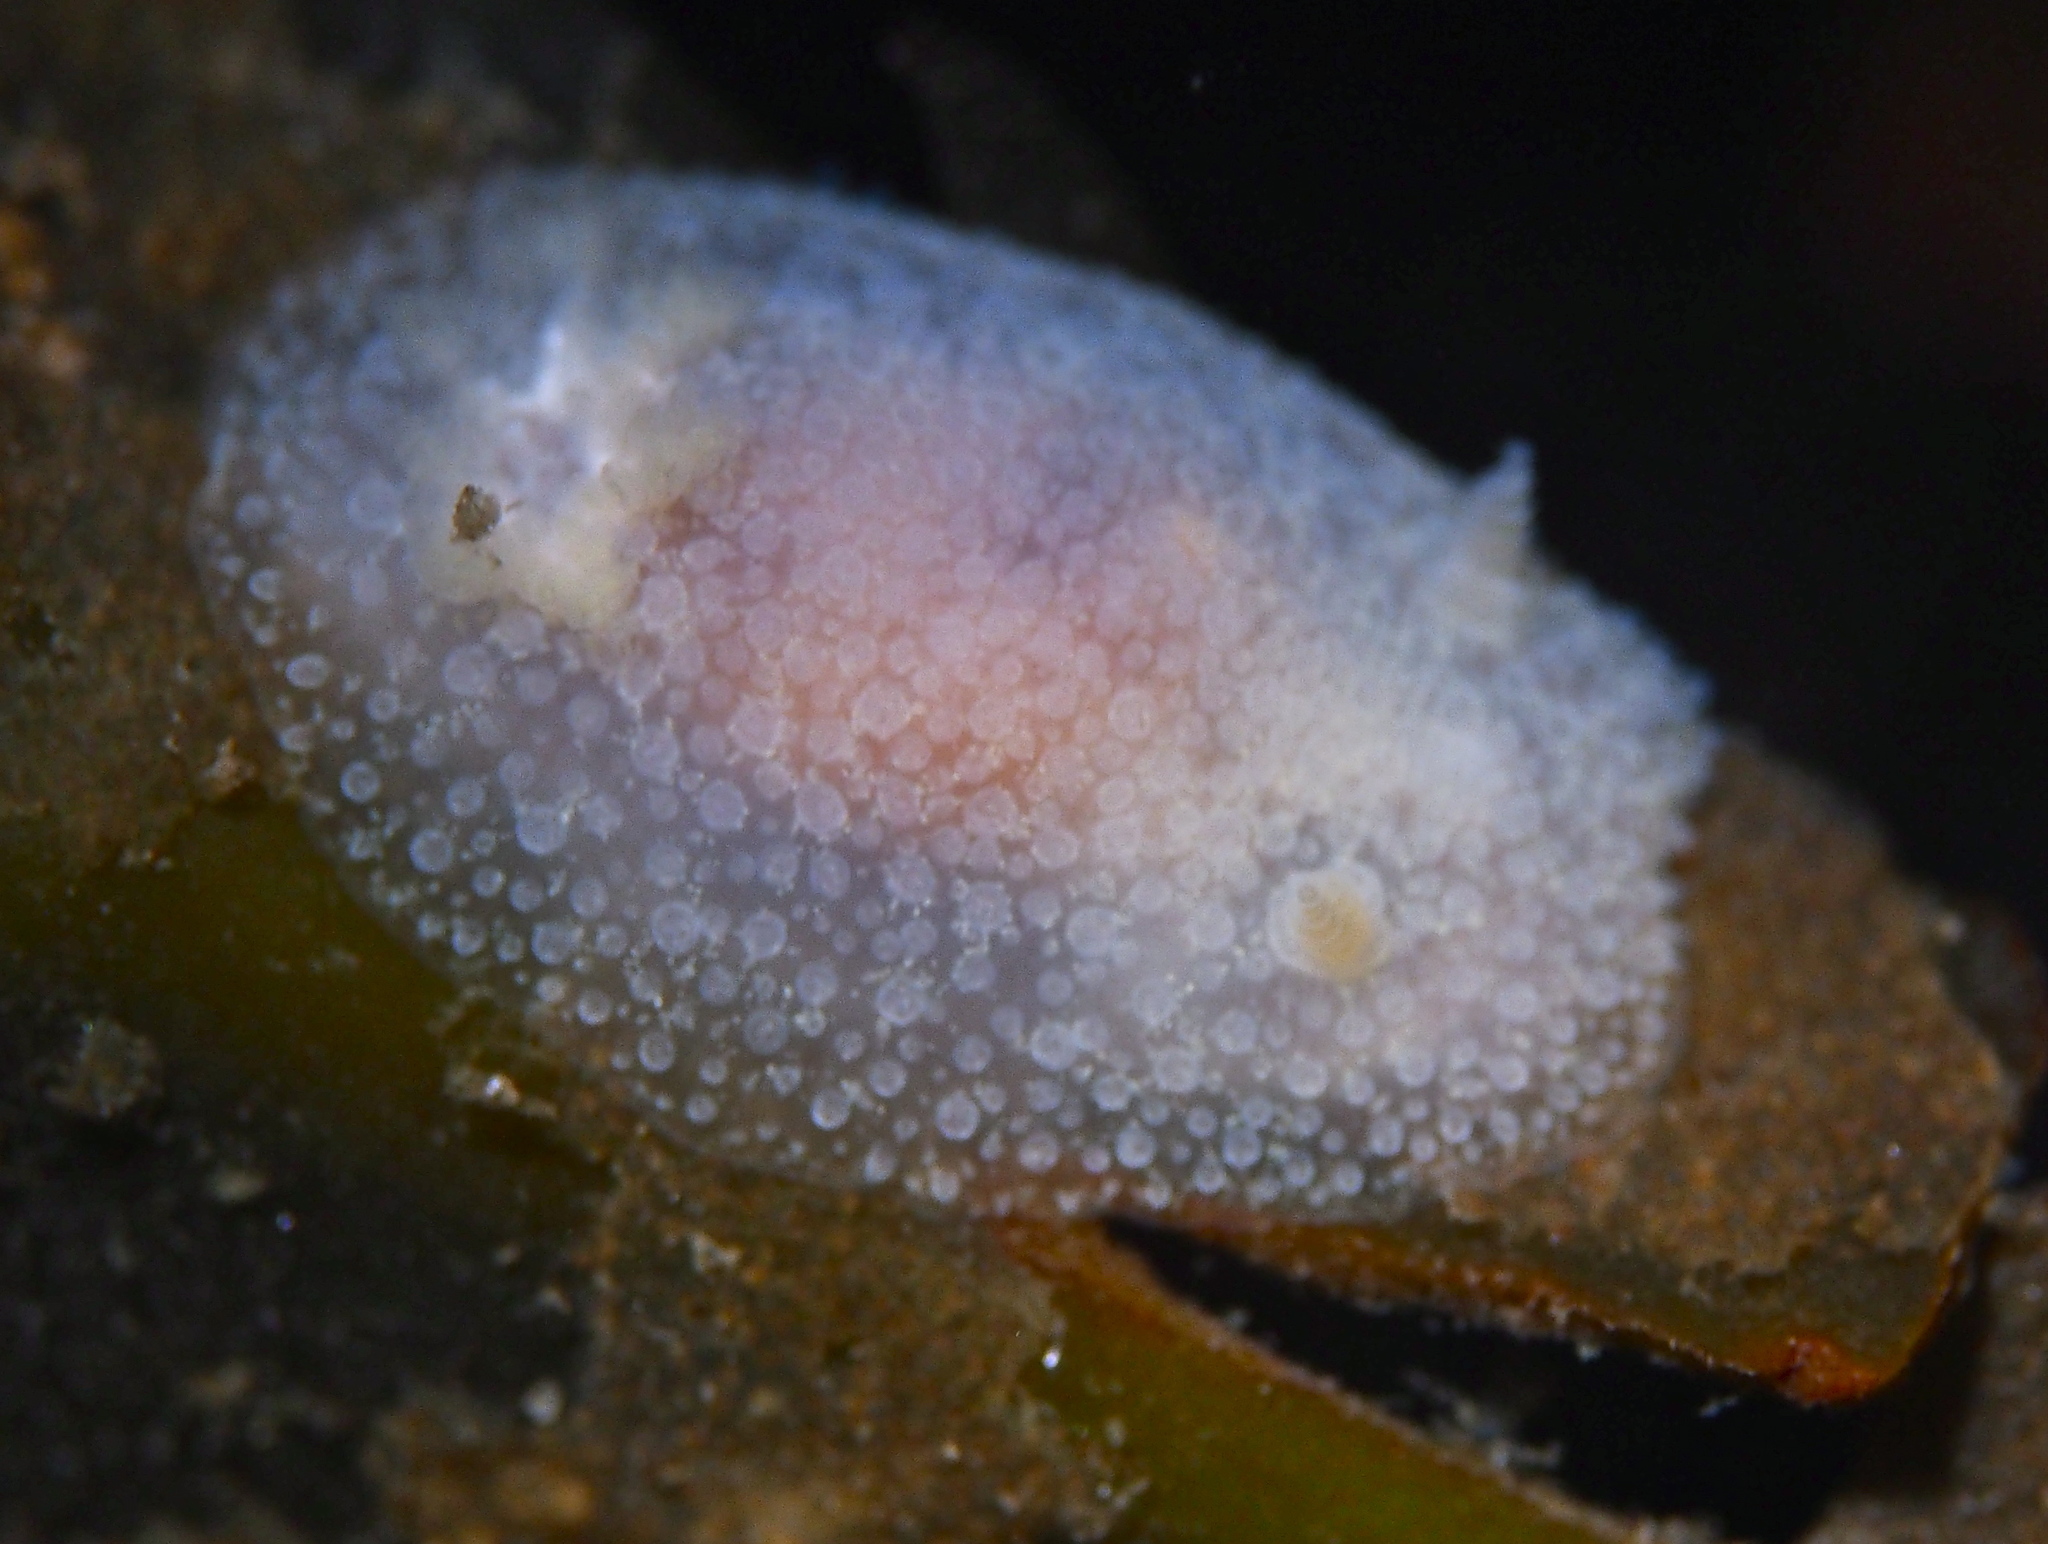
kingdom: Animalia
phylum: Mollusca
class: Gastropoda
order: Nudibranchia
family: Onchidorididae
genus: Acanthodoris
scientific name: Acanthodoris pilosa
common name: Hairy spiny doris
